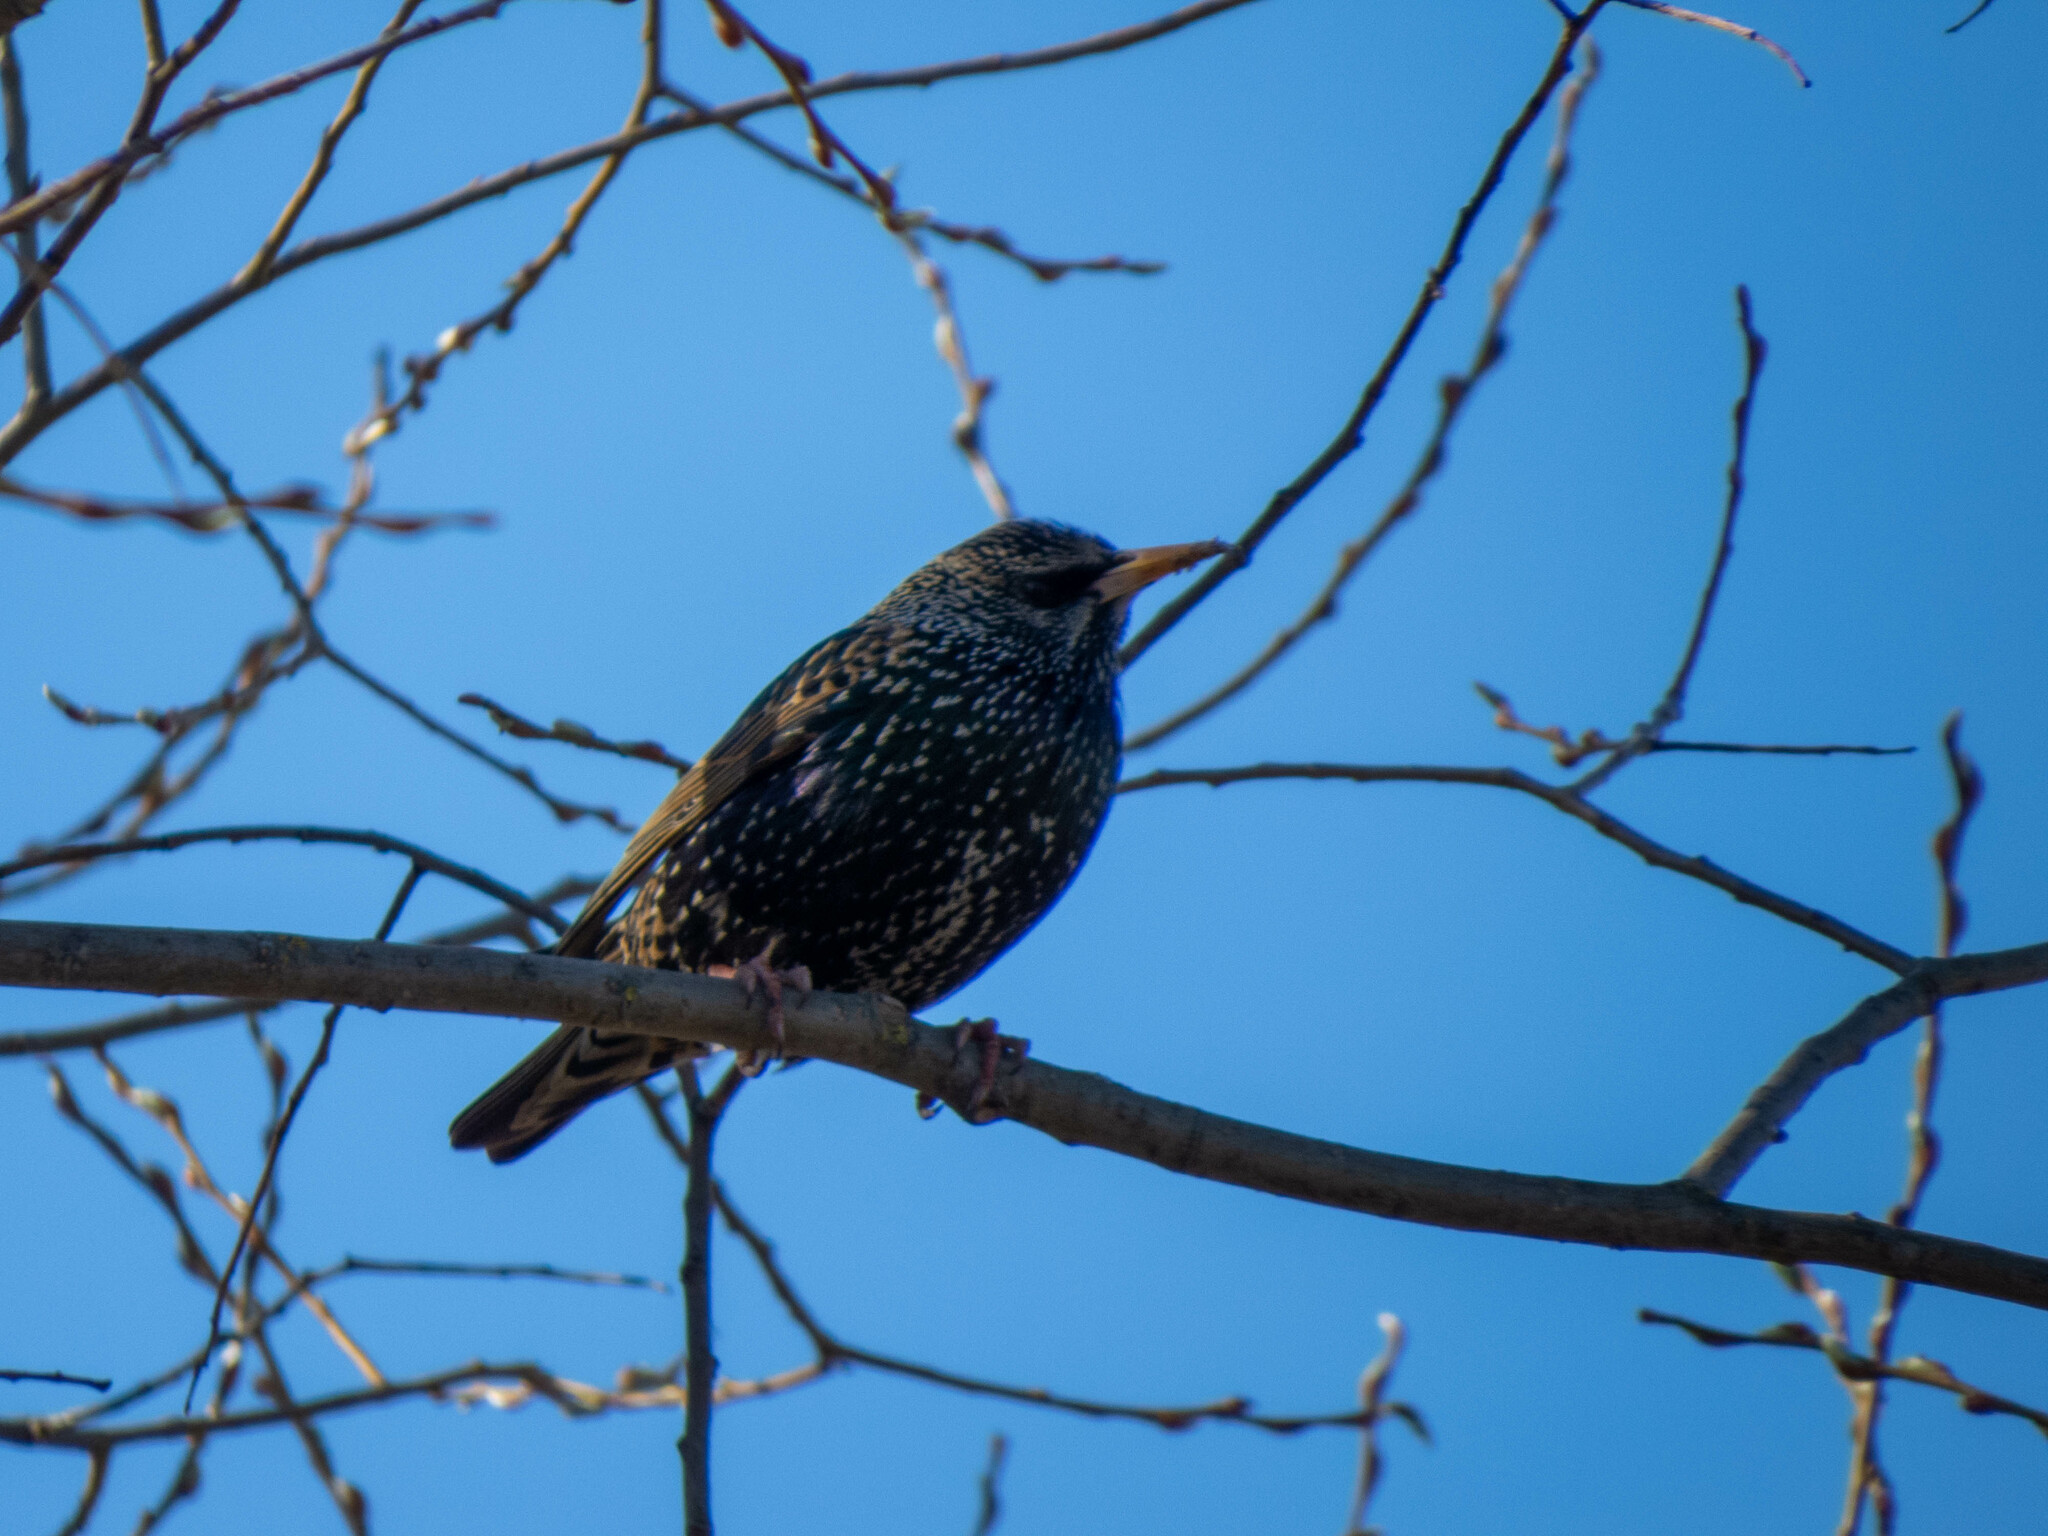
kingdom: Animalia
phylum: Chordata
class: Aves
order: Passeriformes
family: Sturnidae
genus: Sturnus
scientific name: Sturnus vulgaris
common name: Common starling
